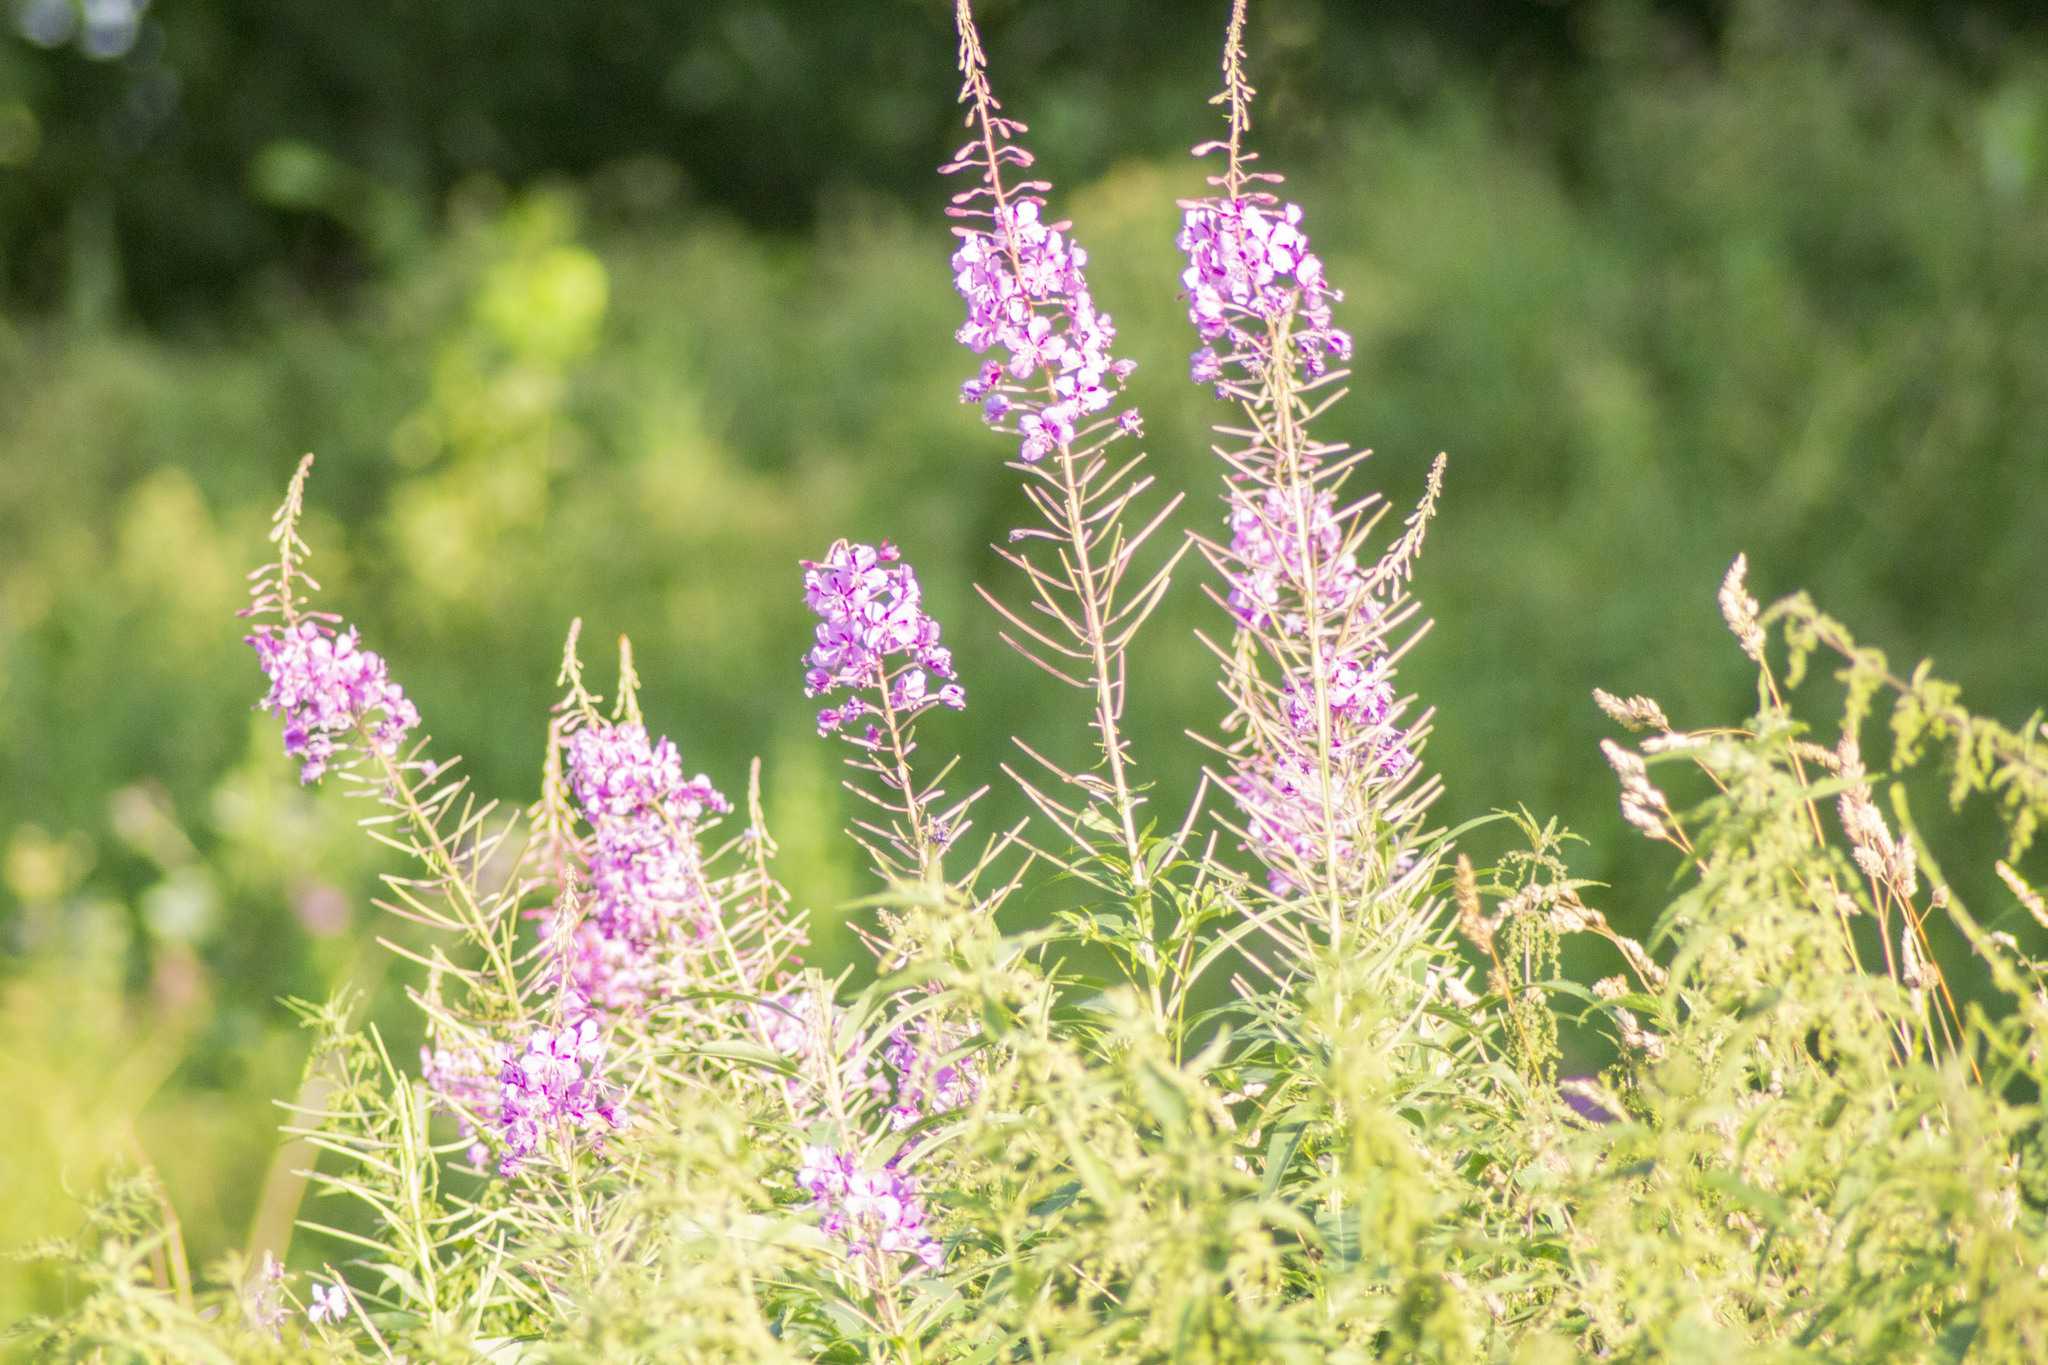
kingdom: Plantae
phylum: Tracheophyta
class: Magnoliopsida
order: Myrtales
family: Onagraceae
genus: Chamaenerion
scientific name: Chamaenerion angustifolium
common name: Fireweed
